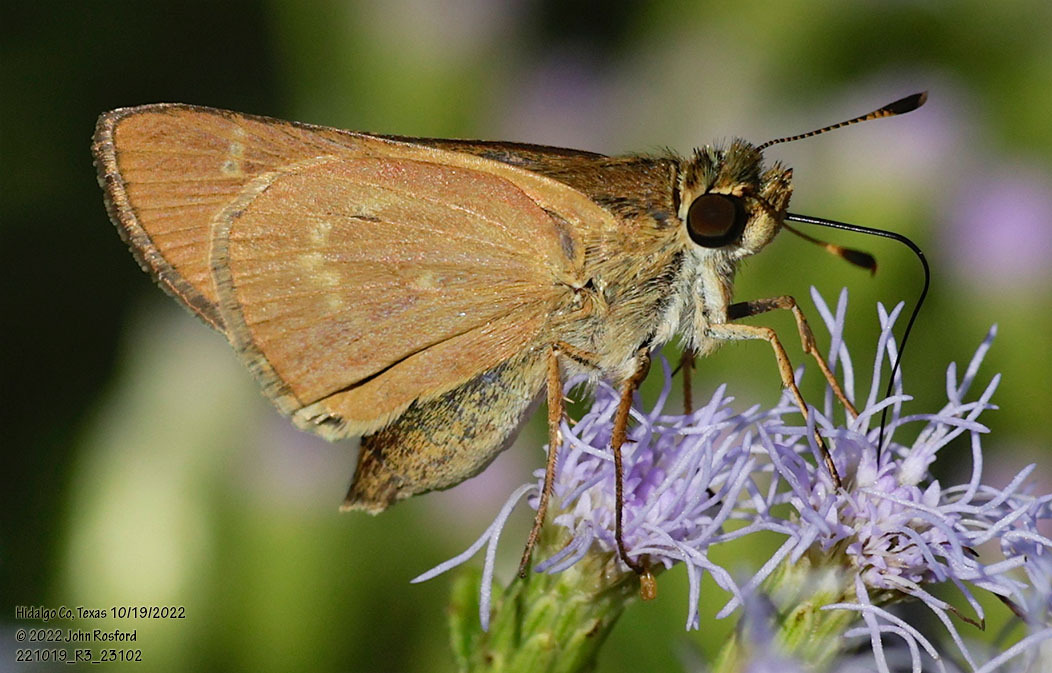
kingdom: Animalia
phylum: Arthropoda
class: Insecta
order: Lepidoptera
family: Hesperiidae
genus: Mellana
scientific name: Mellana eulogius
